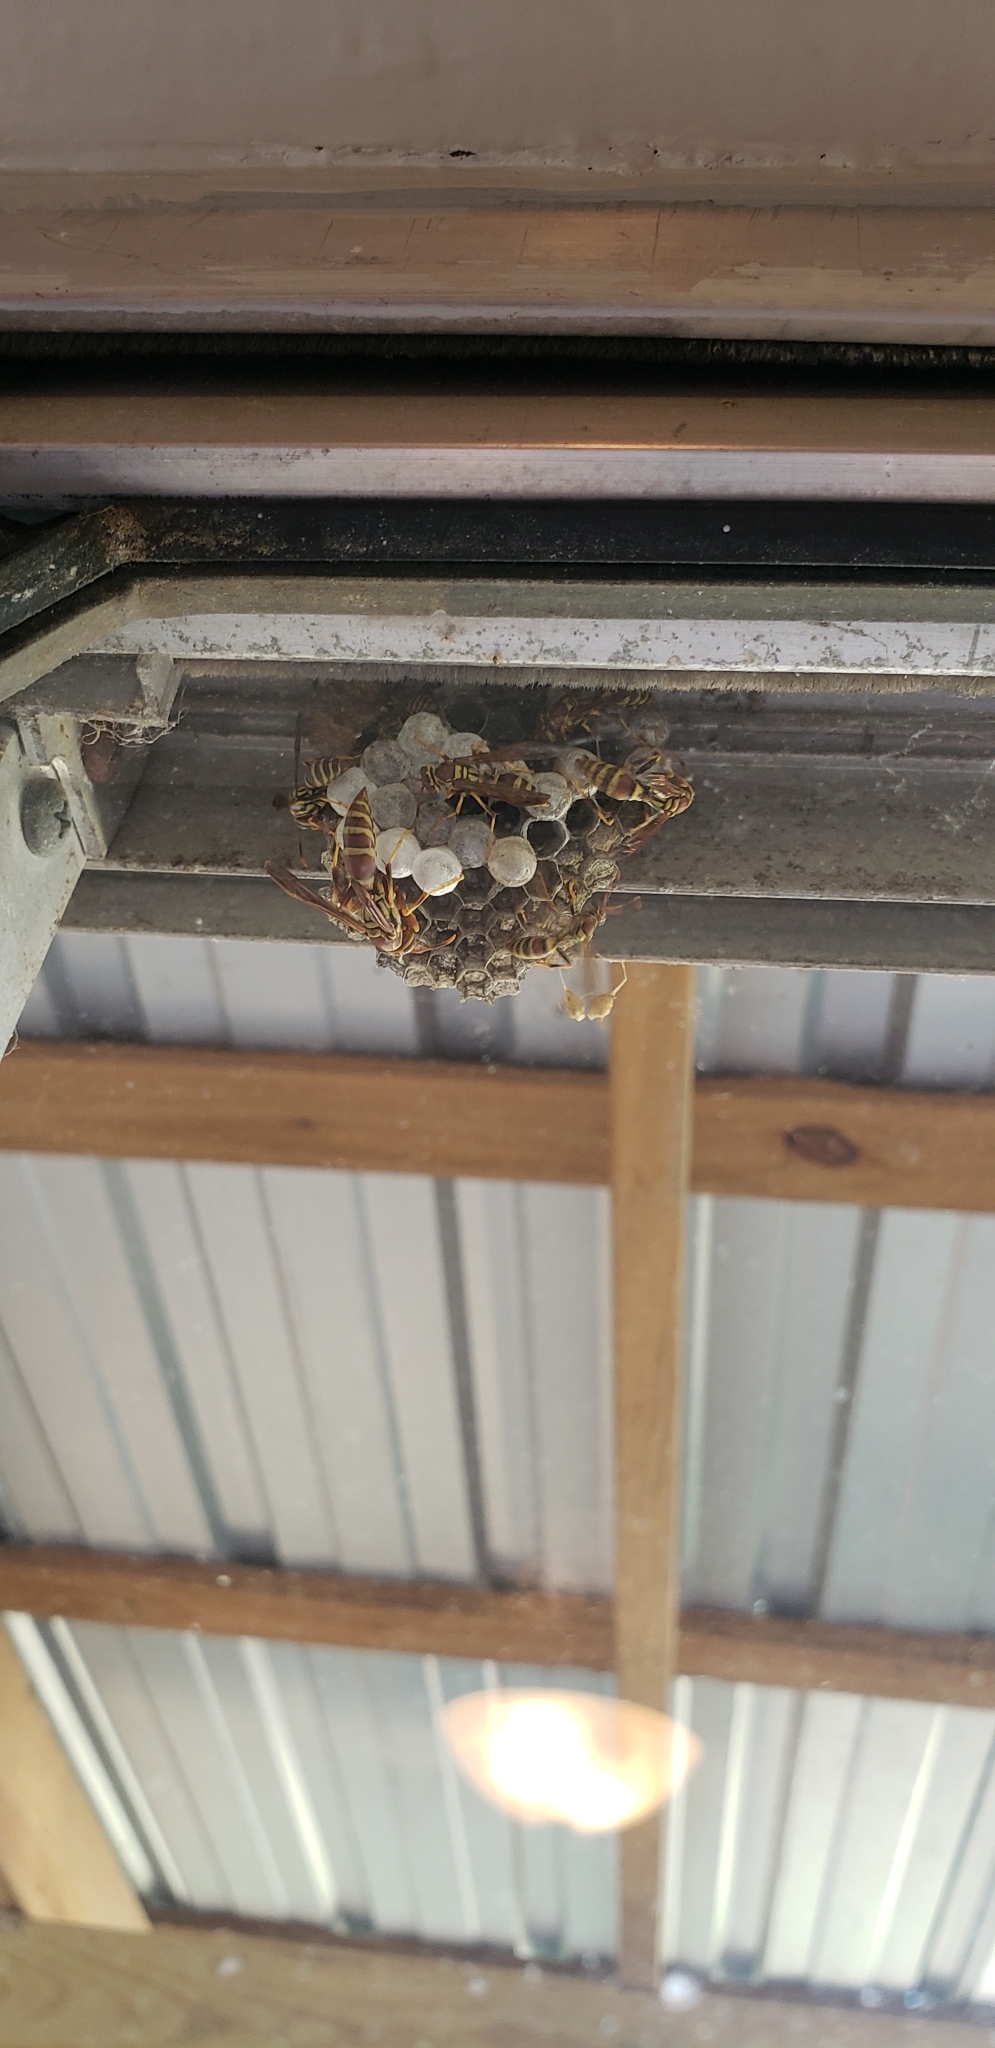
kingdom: Animalia
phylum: Arthropoda
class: Insecta
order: Hymenoptera
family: Eumenidae
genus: Polistes
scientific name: Polistes exclamans
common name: Paper wasp
